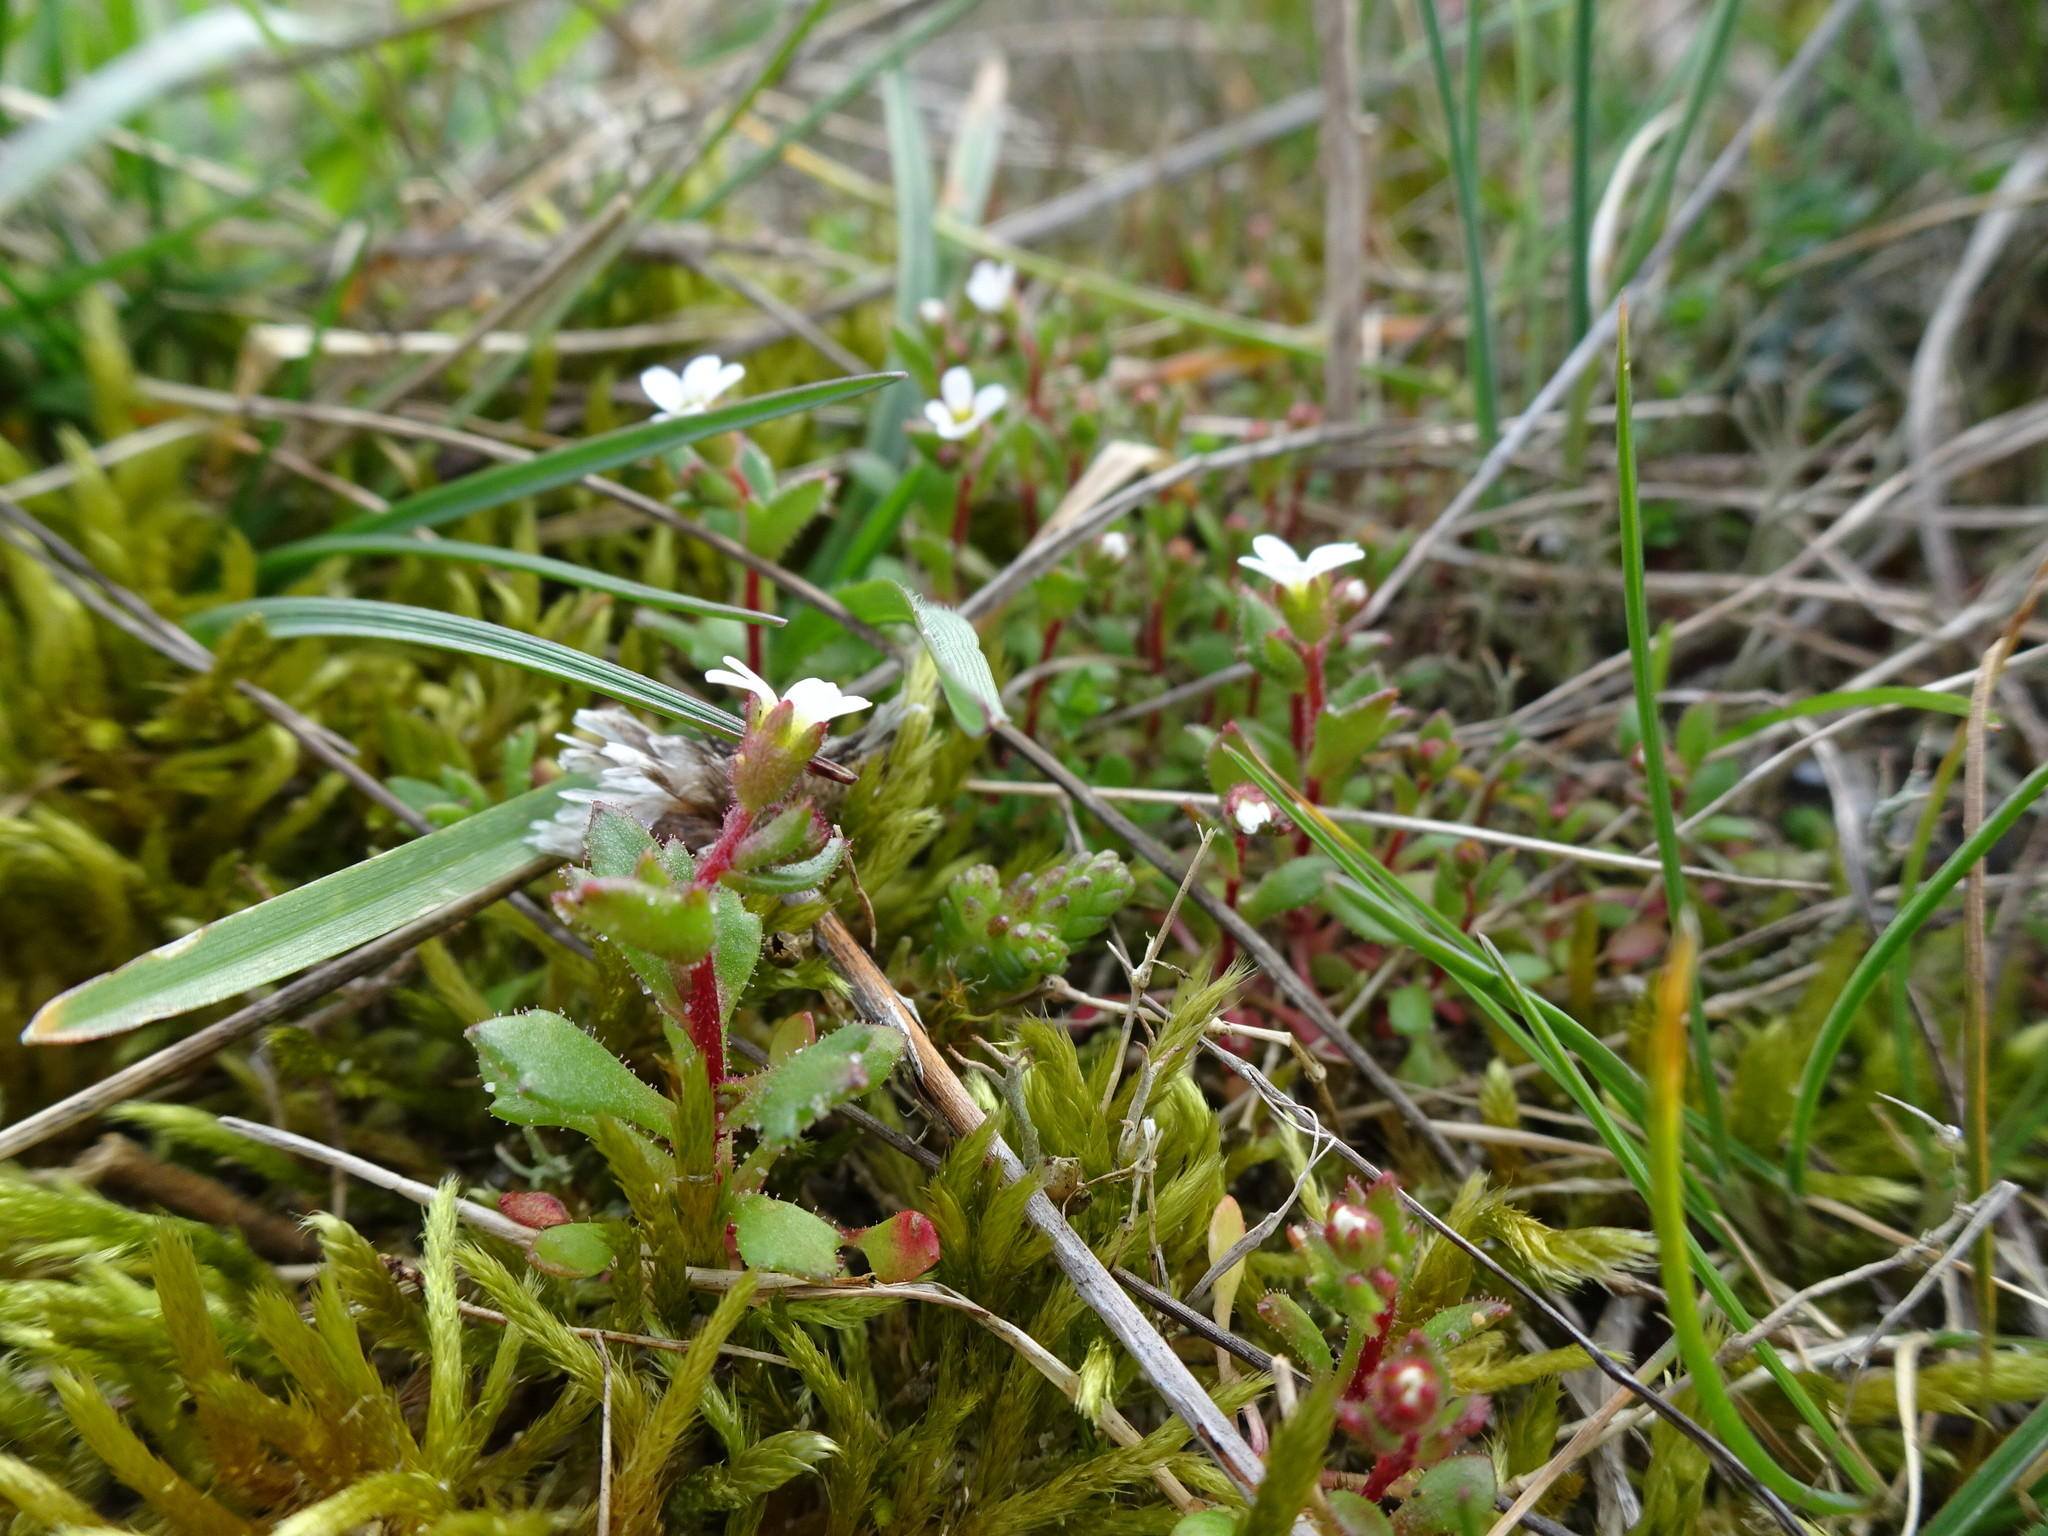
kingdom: Plantae
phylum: Tracheophyta
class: Magnoliopsida
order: Saxifragales
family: Saxifragaceae
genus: Saxifraga
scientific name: Saxifraga tridactylites
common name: Rue-leaved saxifrage
